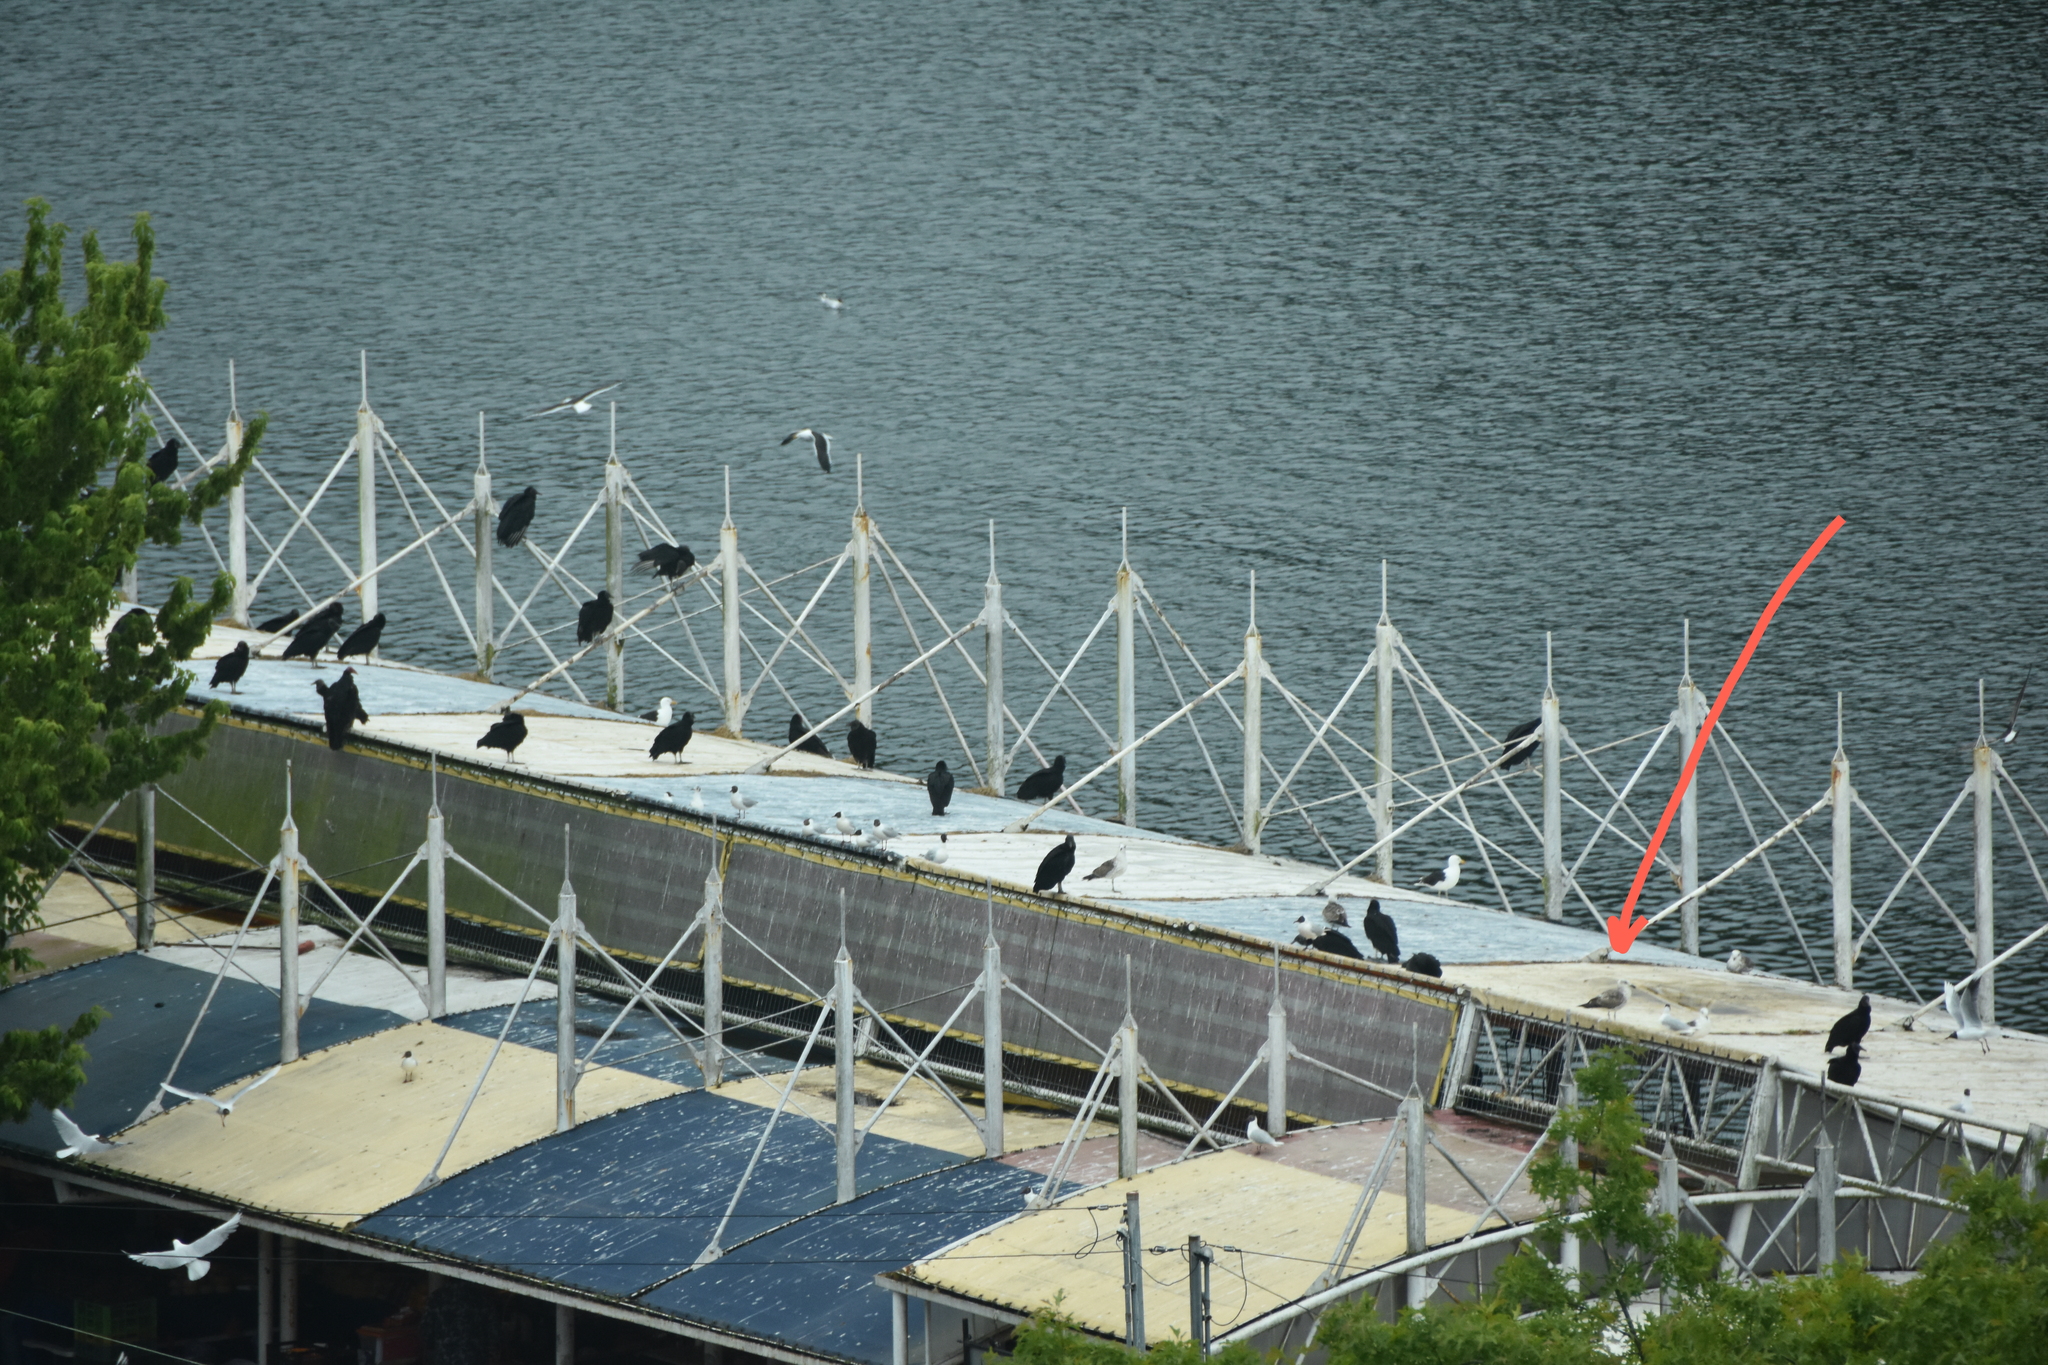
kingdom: Animalia
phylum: Chordata
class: Aves
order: Charadriiformes
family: Laridae
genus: Larus
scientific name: Larus dominicanus
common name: Kelp gull
